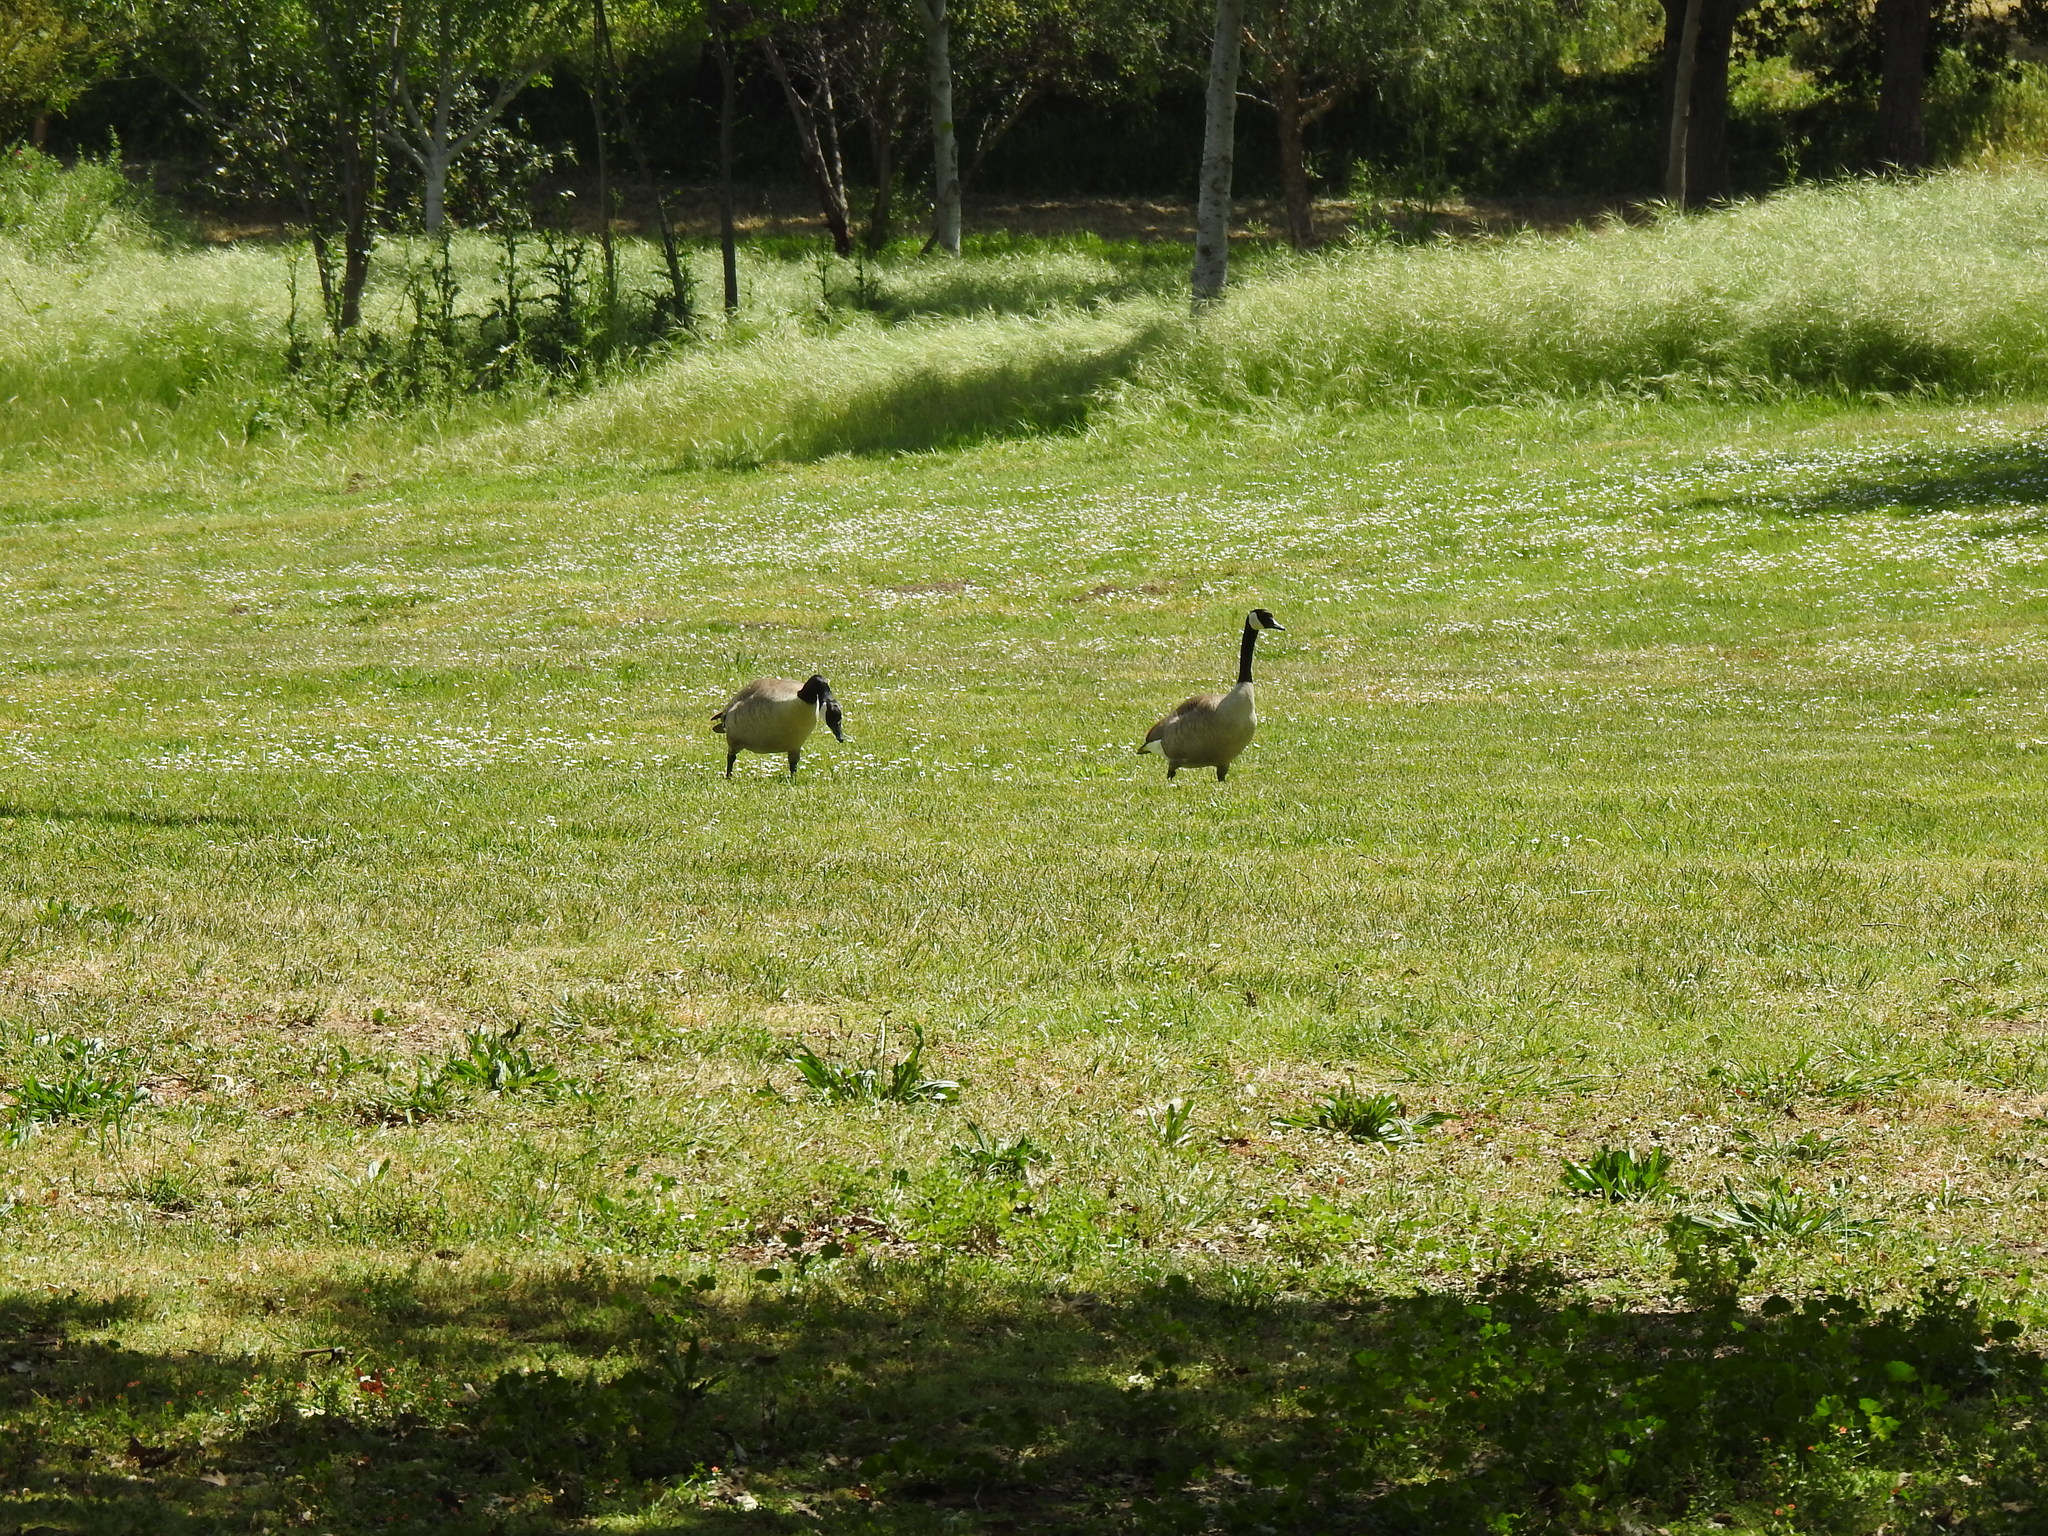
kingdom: Animalia
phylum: Chordata
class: Aves
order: Anseriformes
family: Anatidae
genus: Branta
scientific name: Branta canadensis
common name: Canada goose
